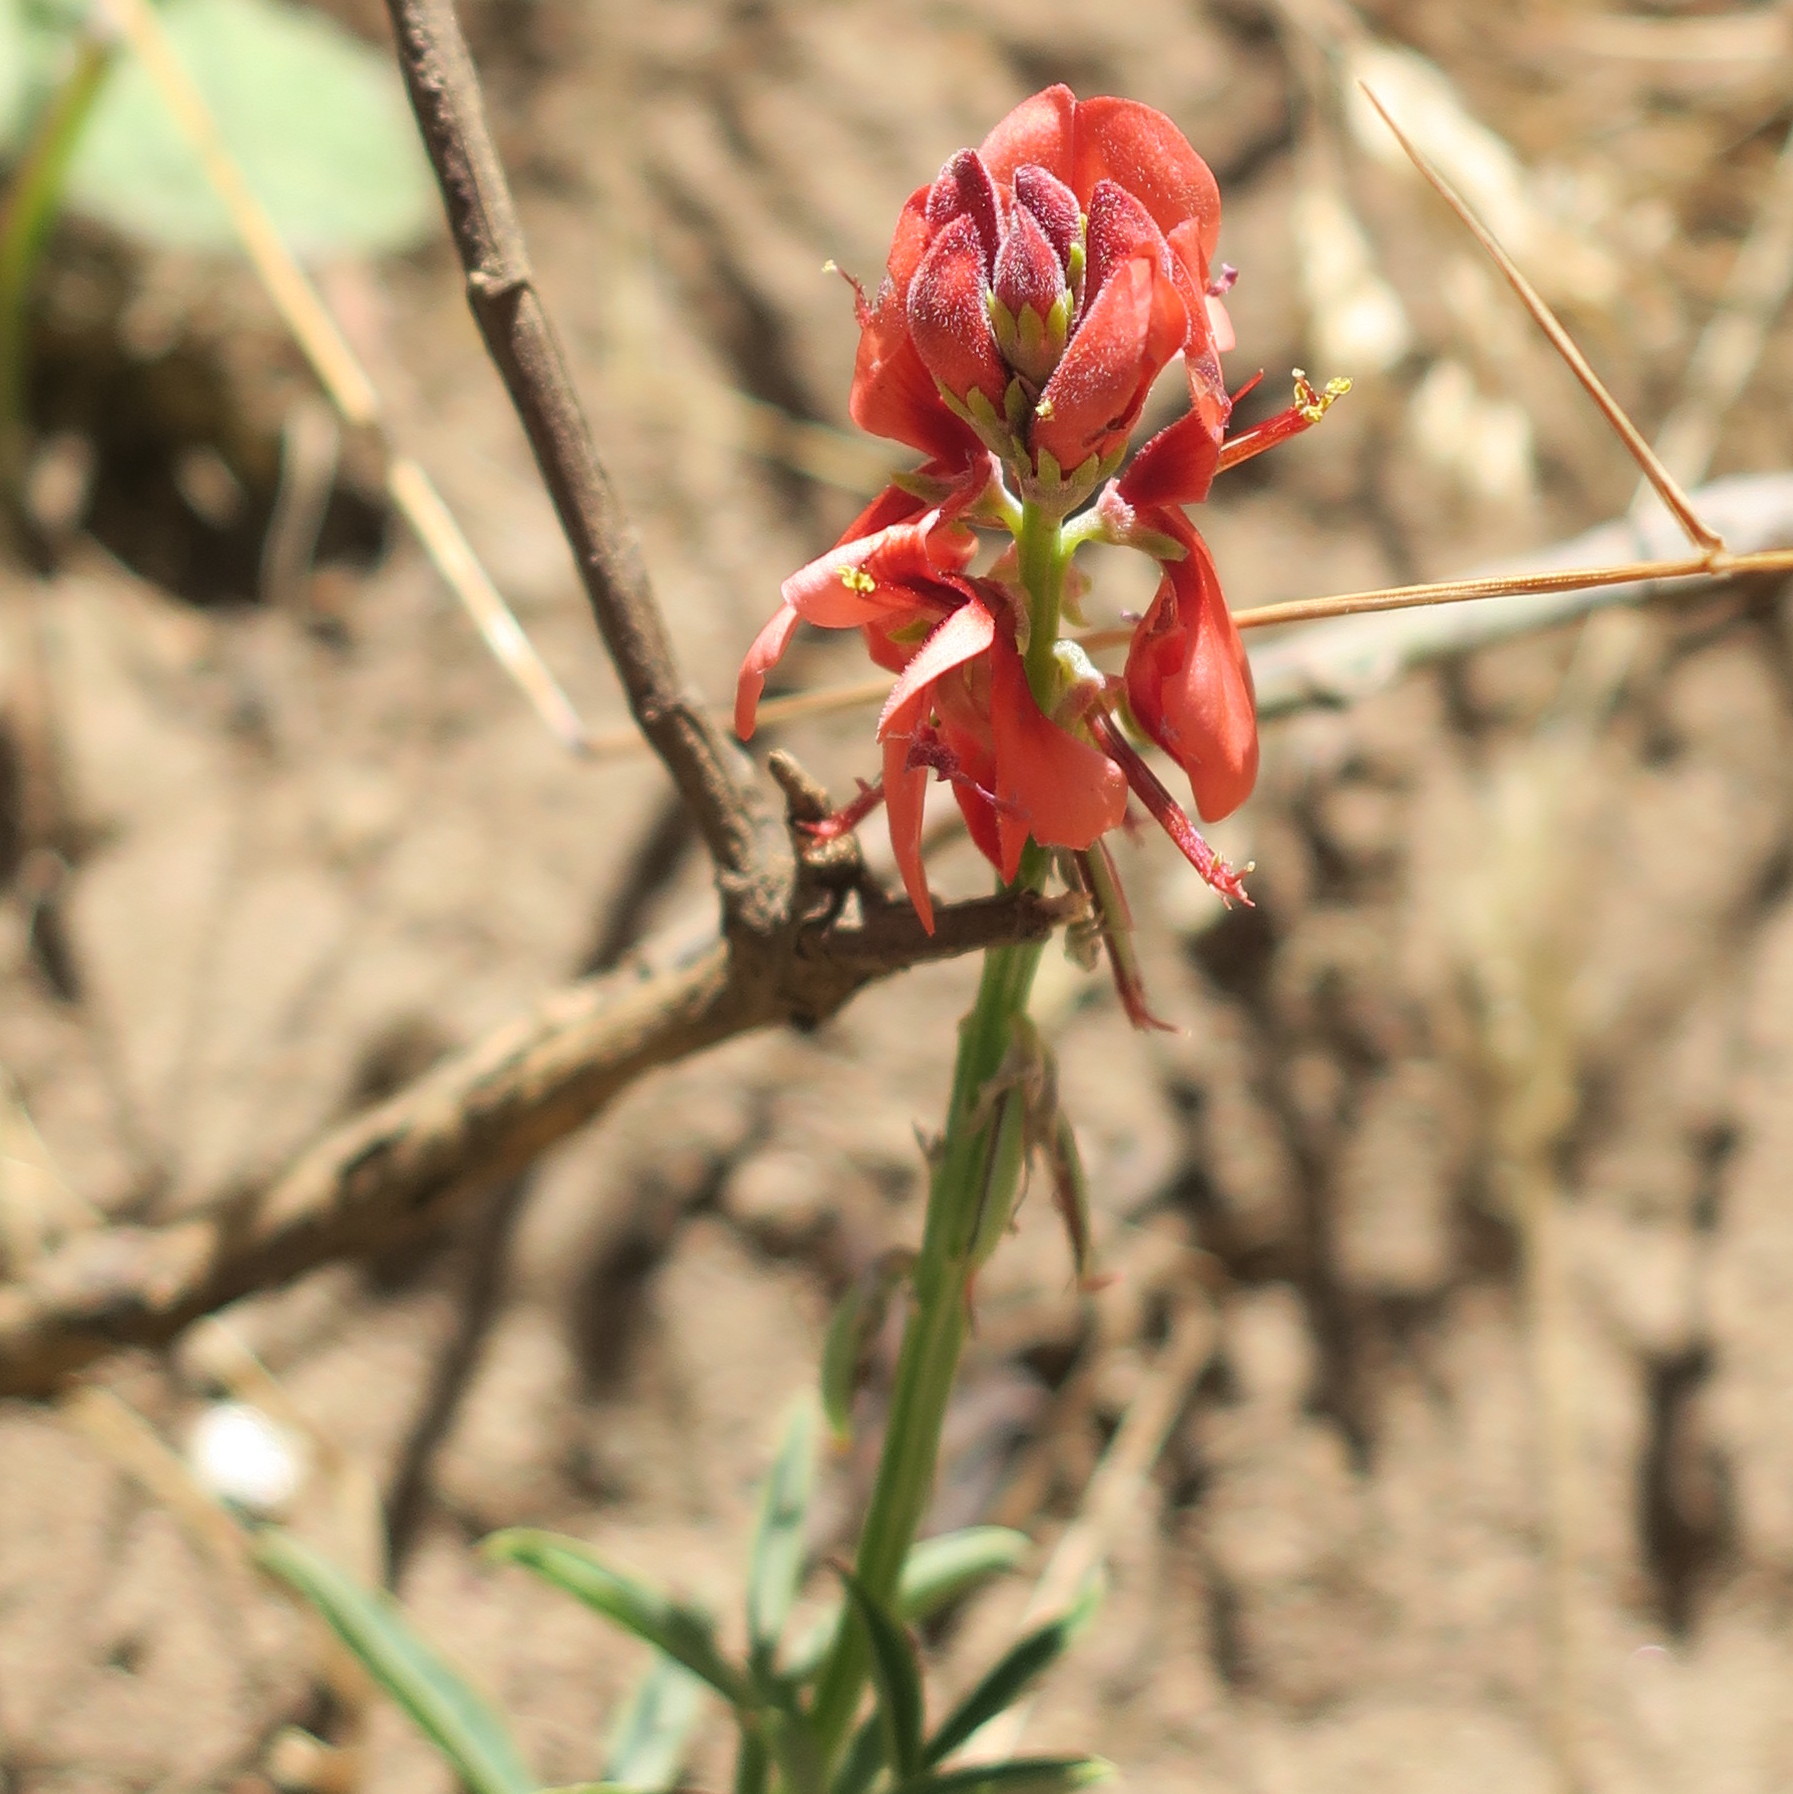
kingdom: Plantae
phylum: Tracheophyta
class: Magnoliopsida
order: Fabales
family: Fabaceae
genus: Indigofera
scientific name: Indigofera complanata
